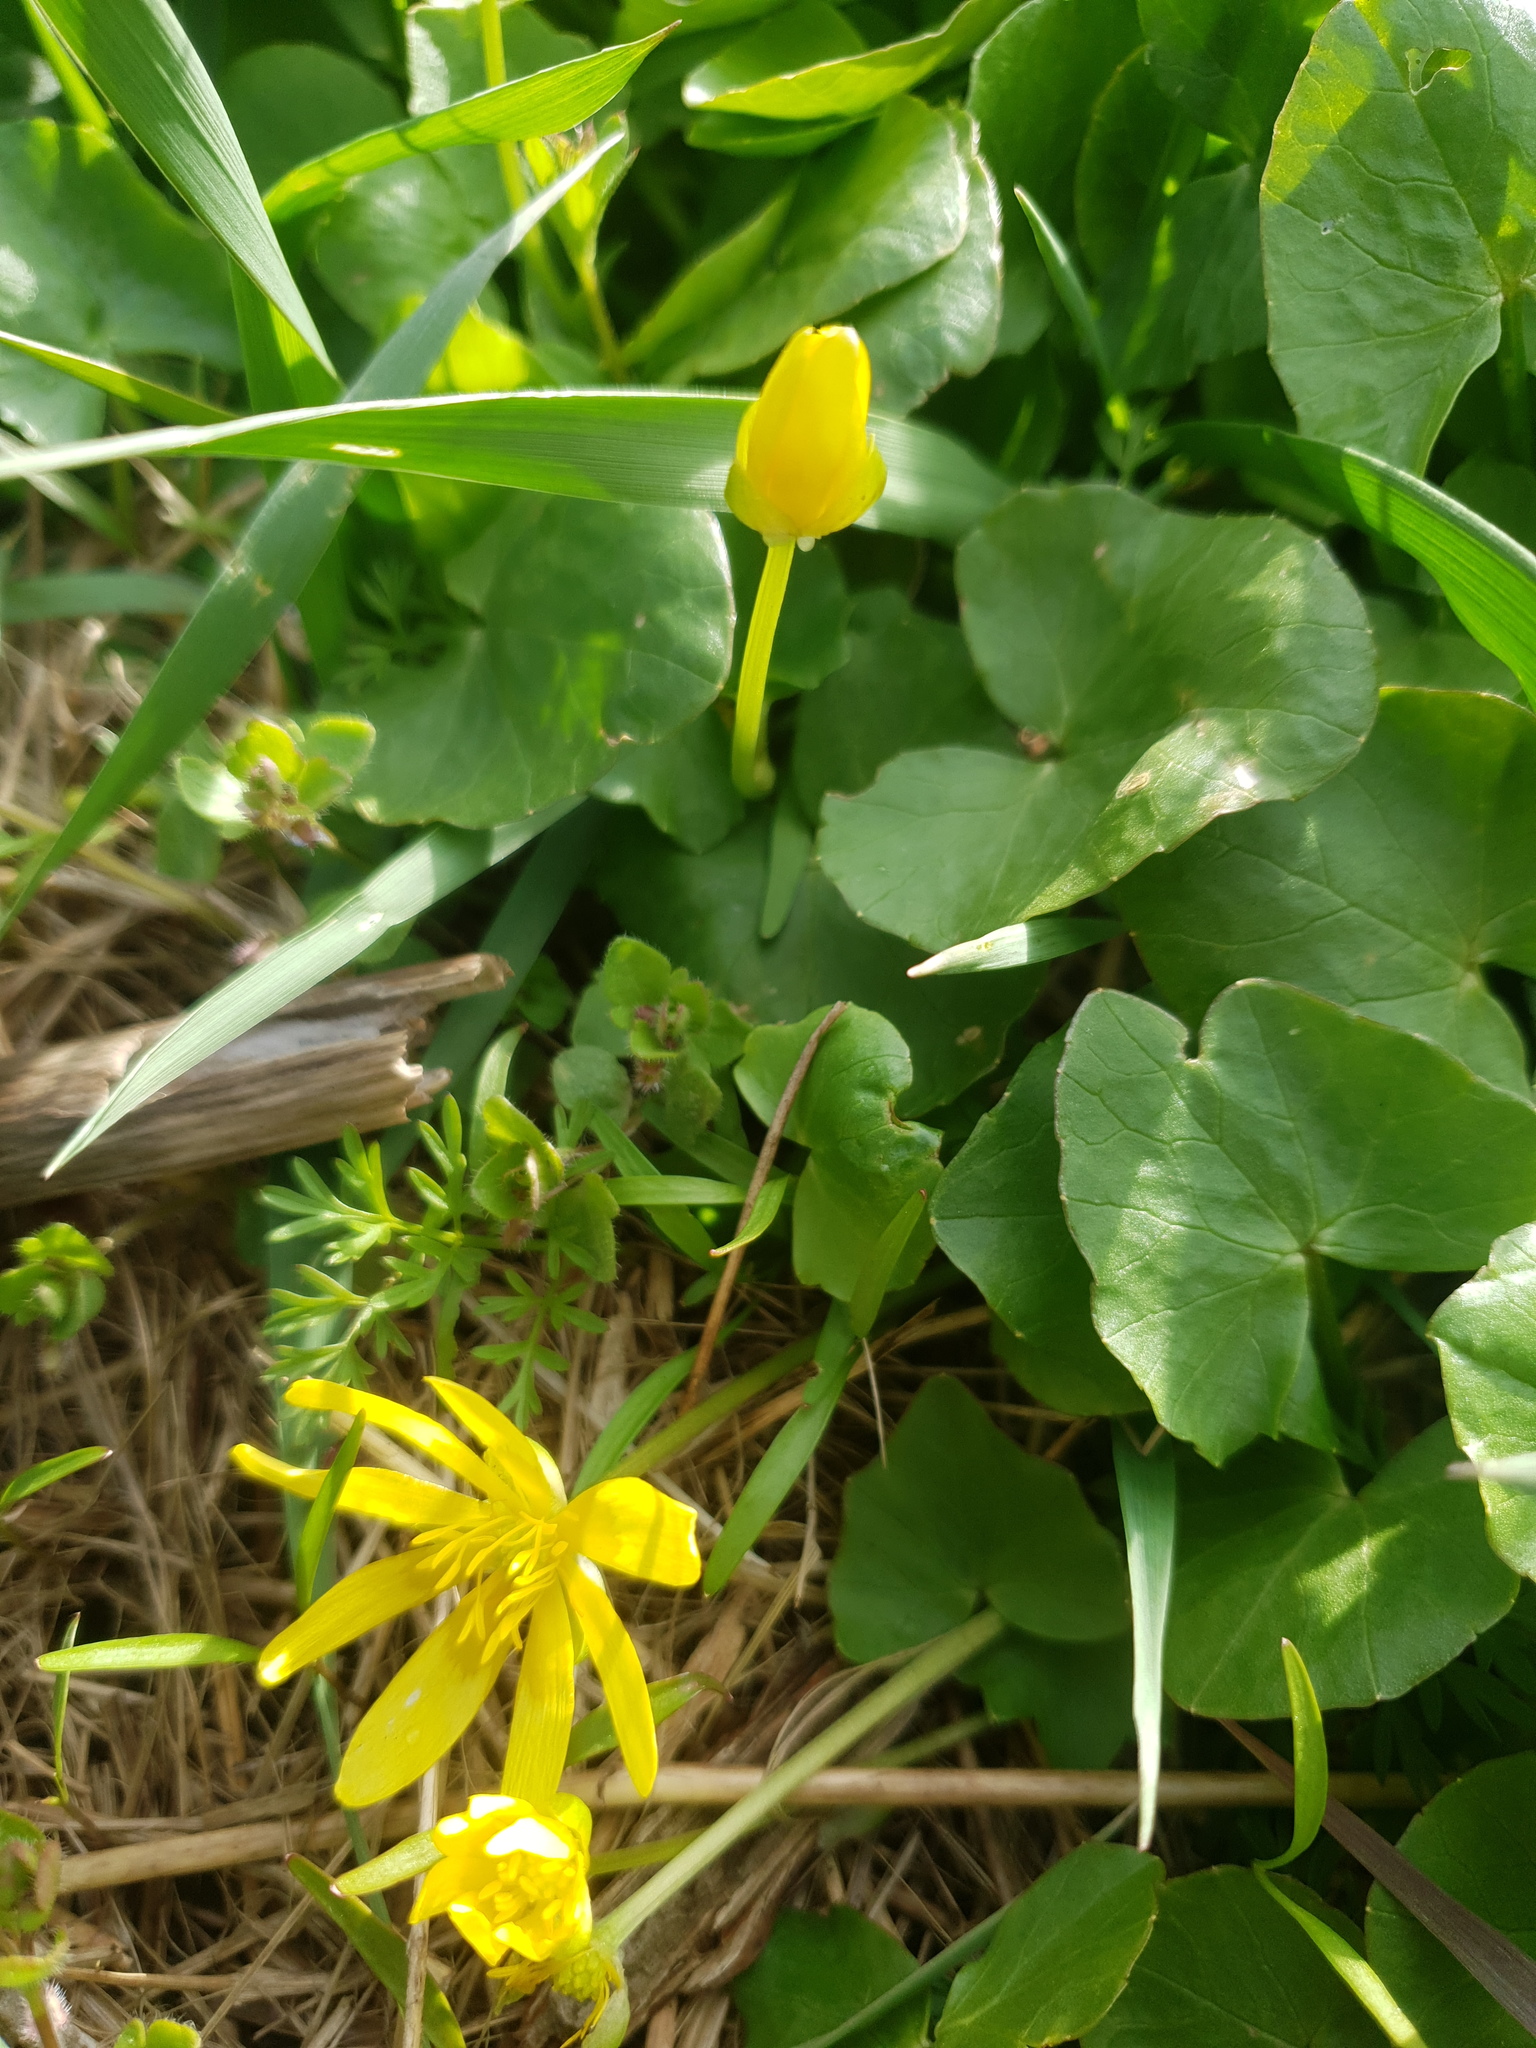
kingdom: Plantae
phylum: Tracheophyta
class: Magnoliopsida
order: Ranunculales
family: Ranunculaceae
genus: Ficaria
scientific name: Ficaria verna
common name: Lesser celandine
